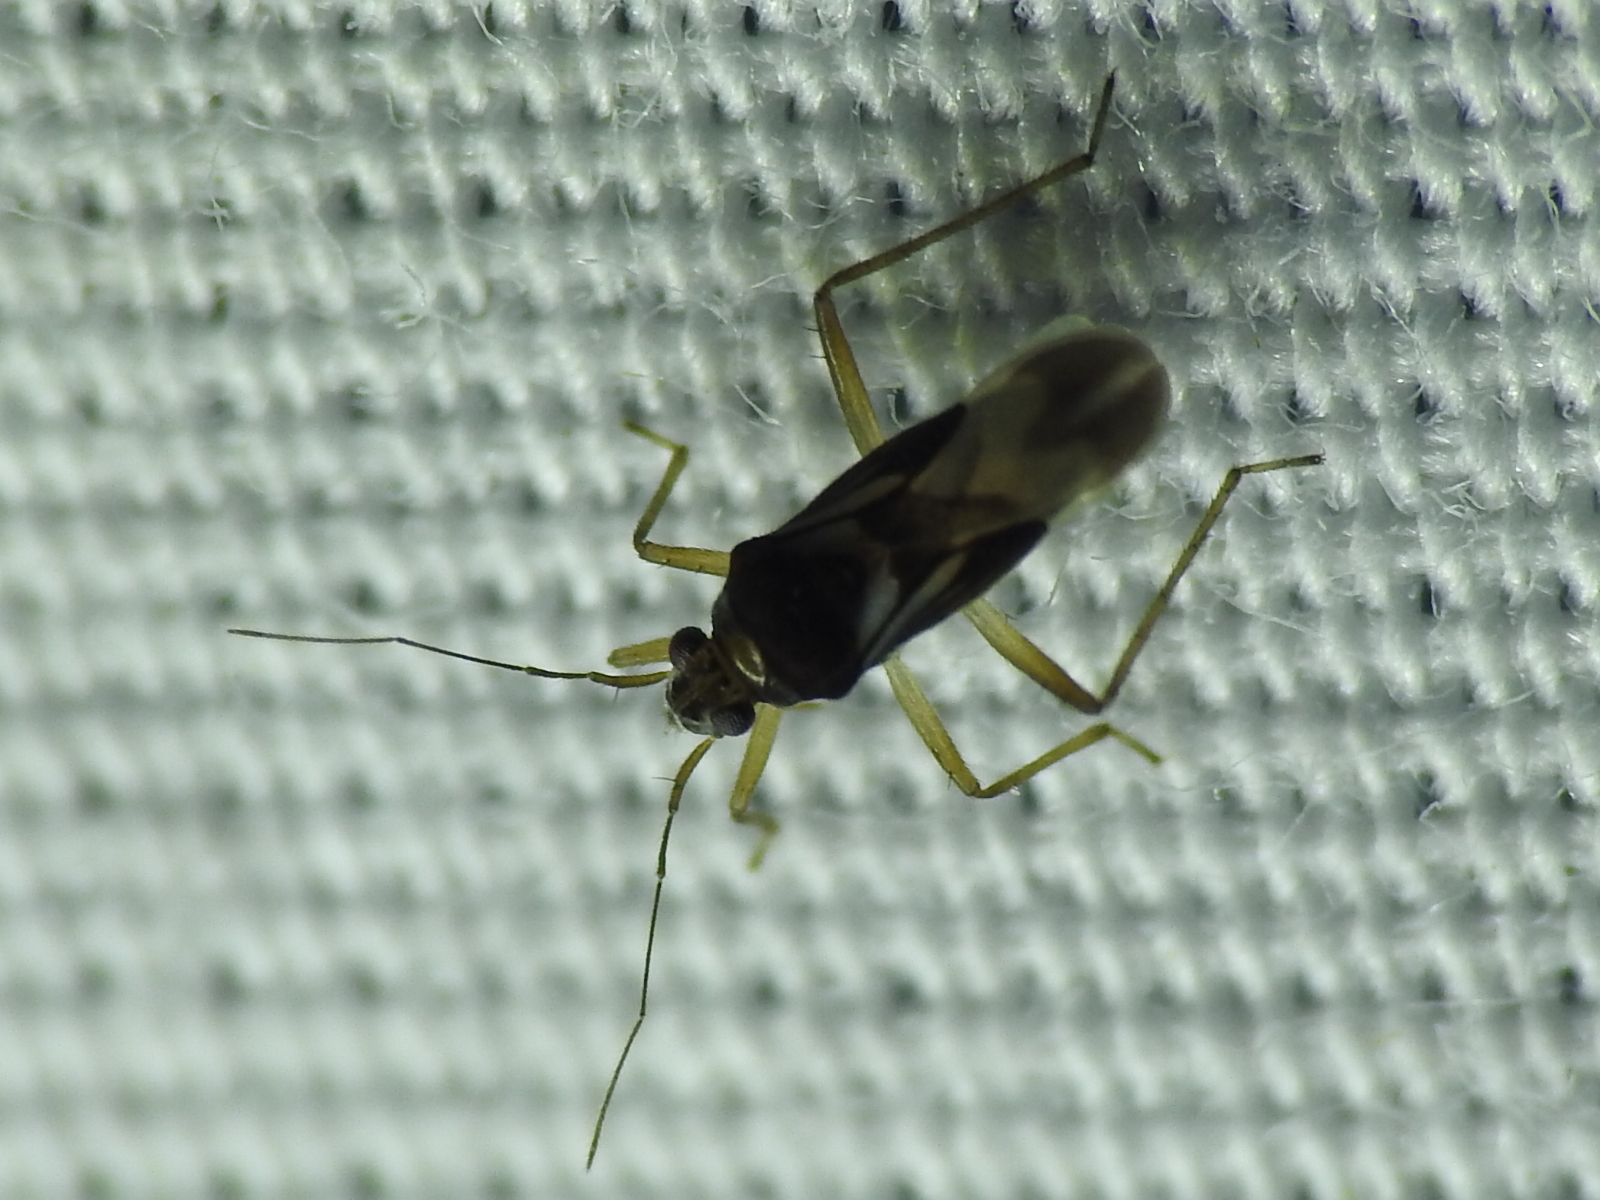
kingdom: Animalia
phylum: Arthropoda
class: Insecta
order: Hemiptera
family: Mesoveliidae
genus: Mesovelia
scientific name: Mesovelia
